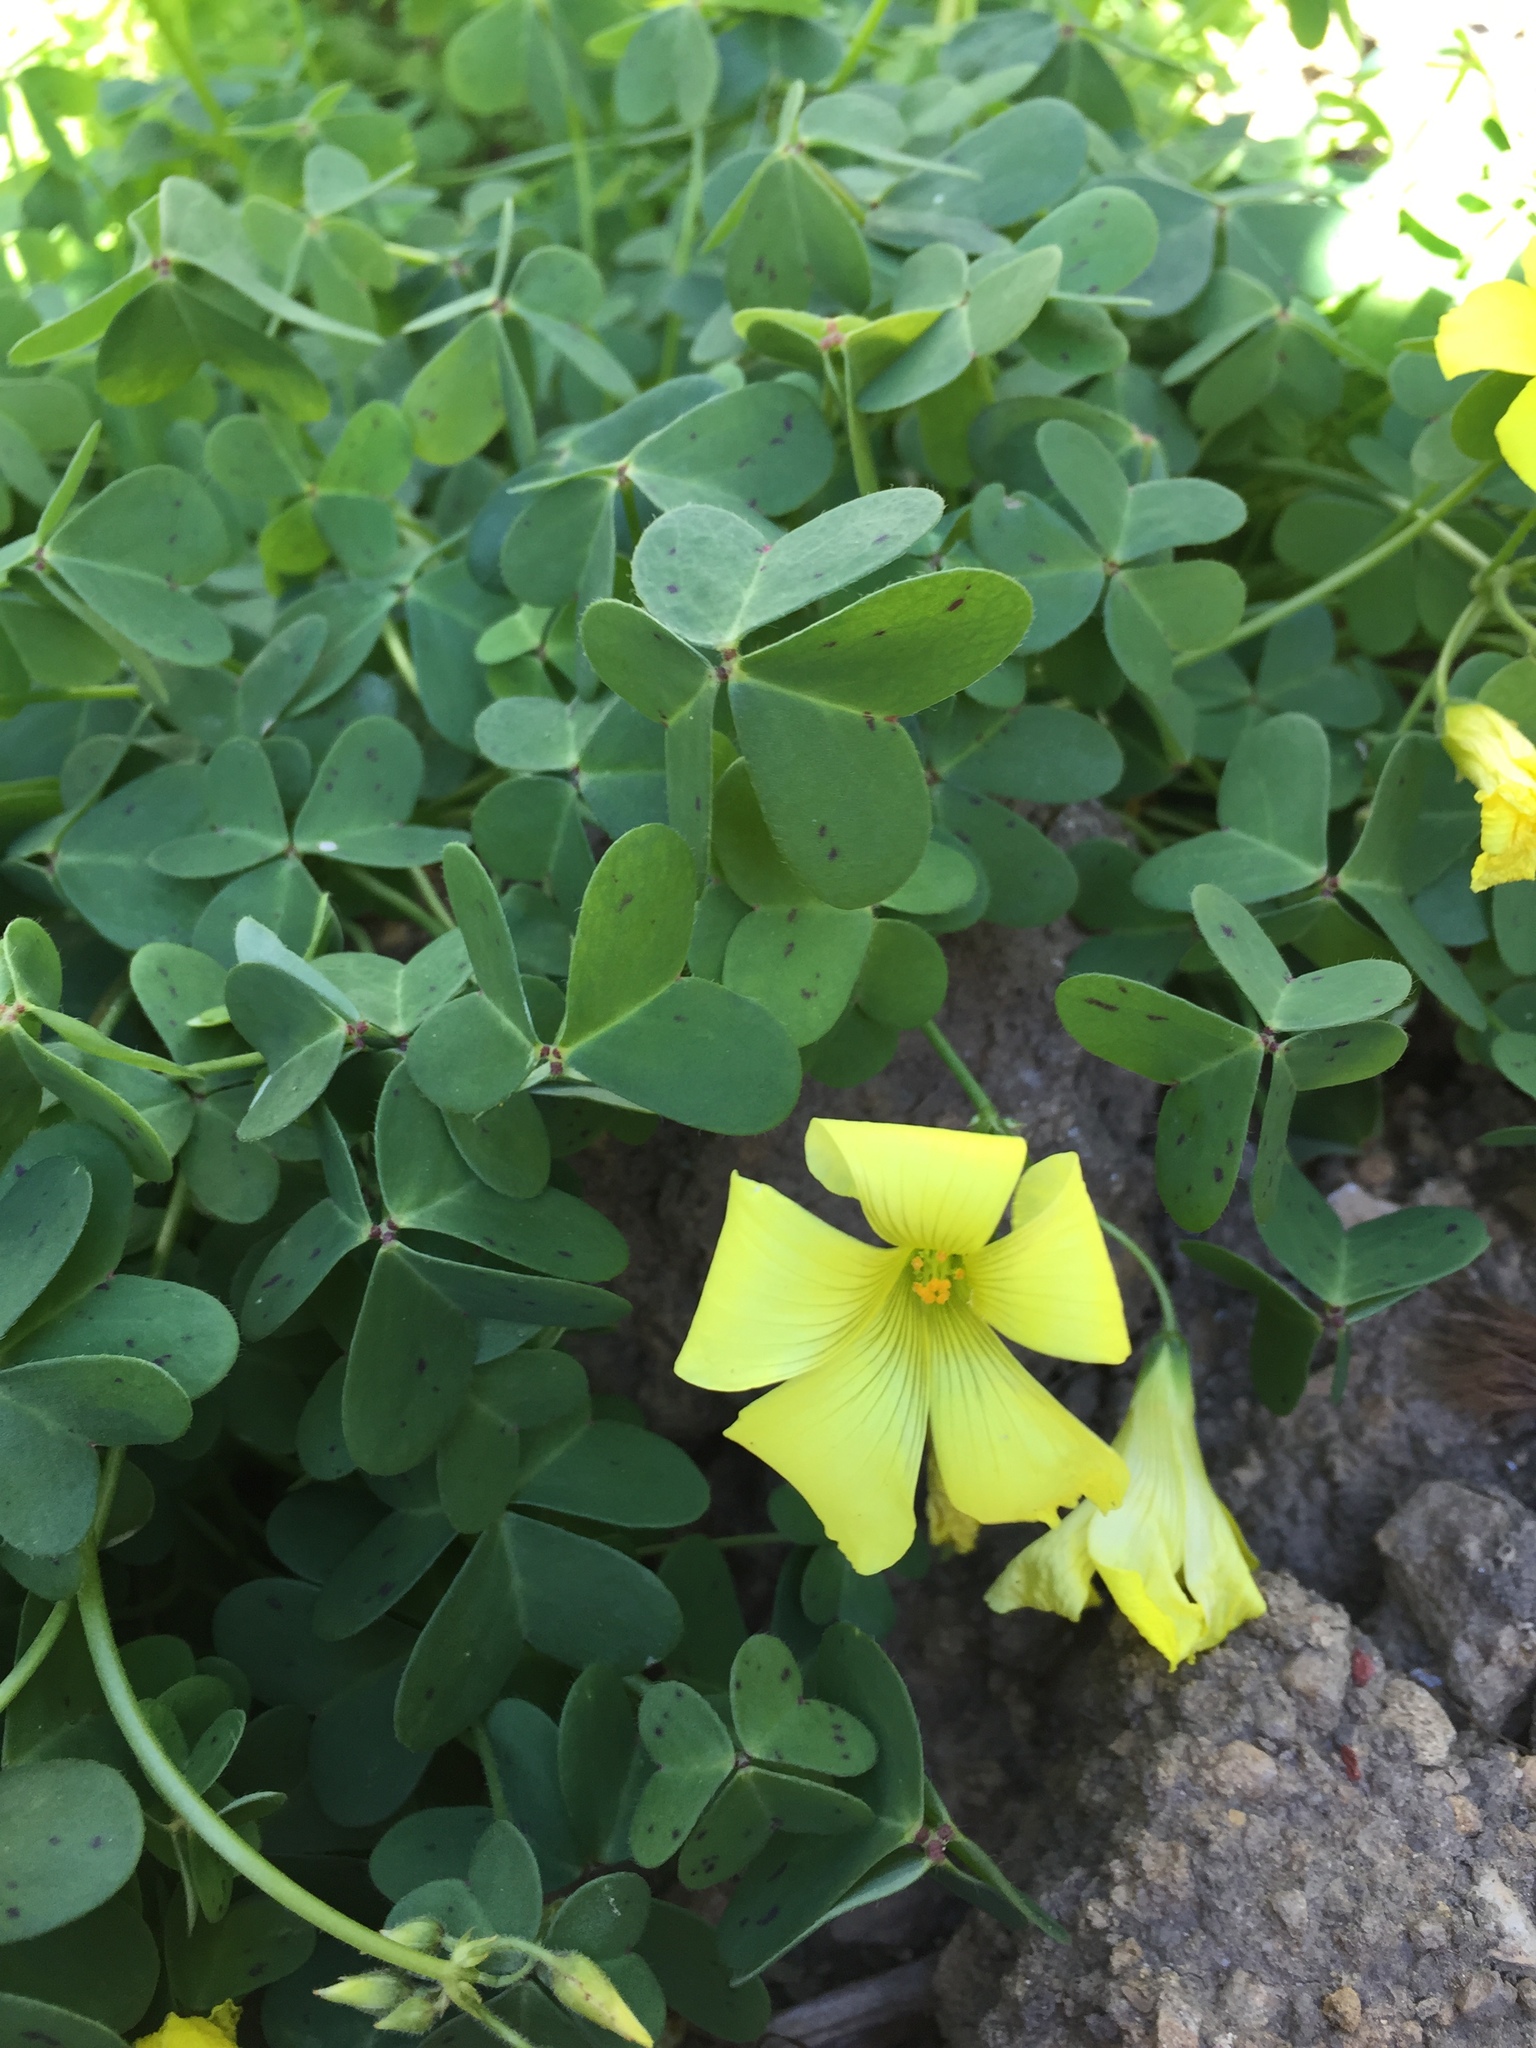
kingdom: Plantae
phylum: Tracheophyta
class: Magnoliopsida
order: Oxalidales
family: Oxalidaceae
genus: Oxalis
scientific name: Oxalis pes-caprae
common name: Bermuda-buttercup
